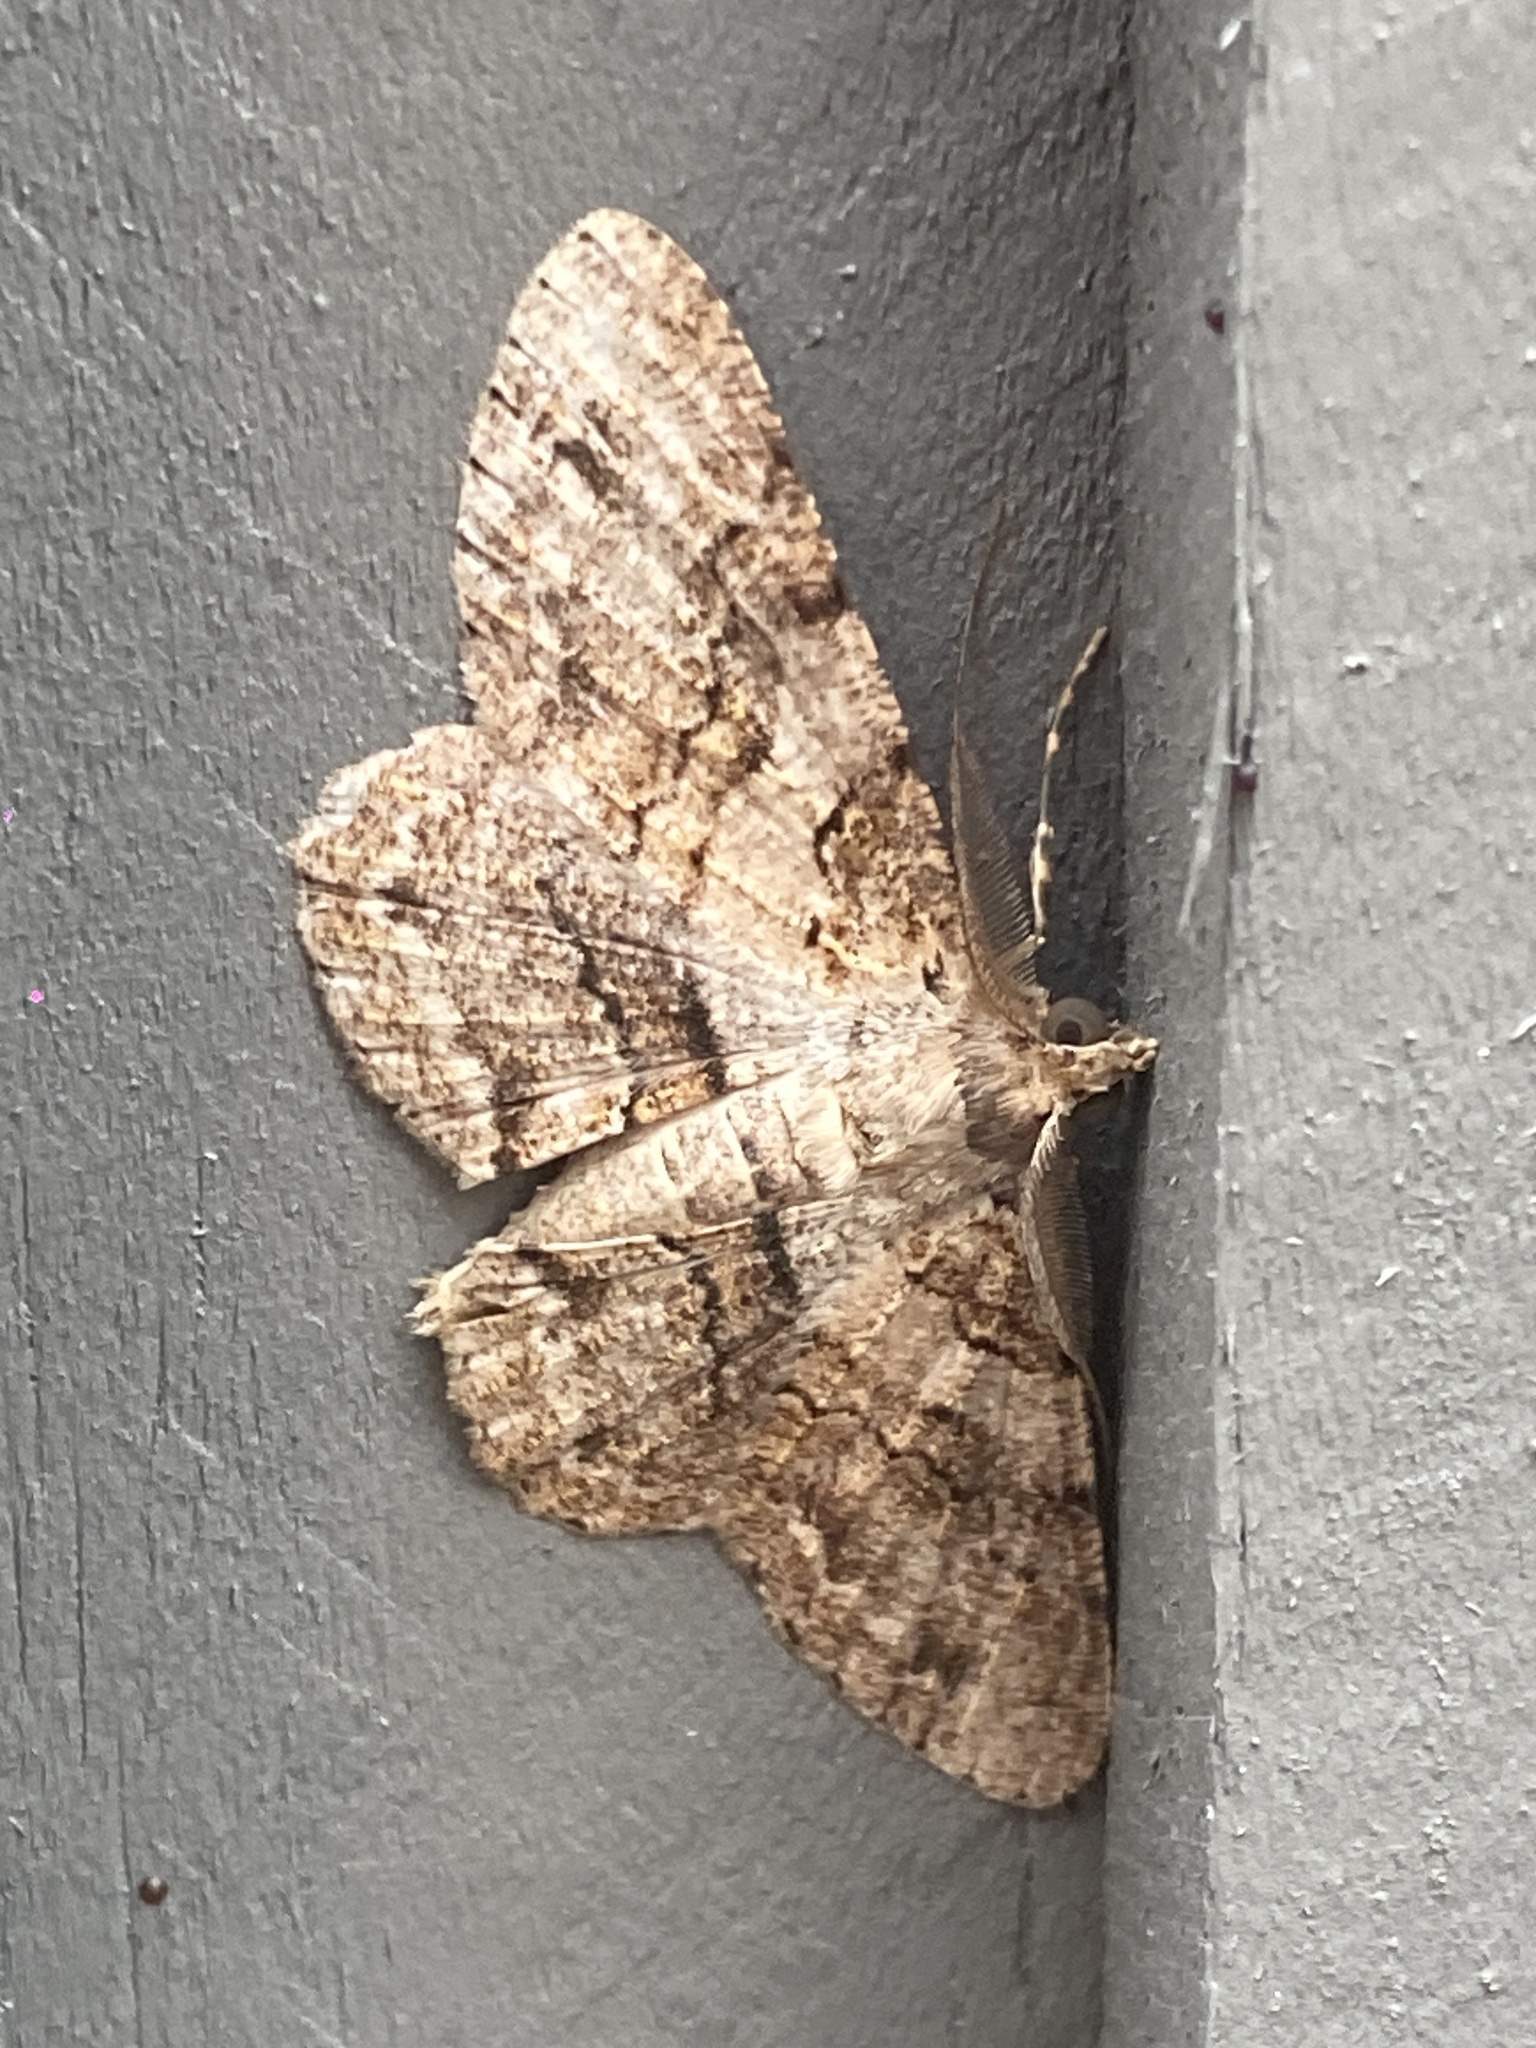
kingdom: Animalia
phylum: Arthropoda
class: Insecta
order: Lepidoptera
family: Geometridae
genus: Cleora
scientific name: Cleora repetita
